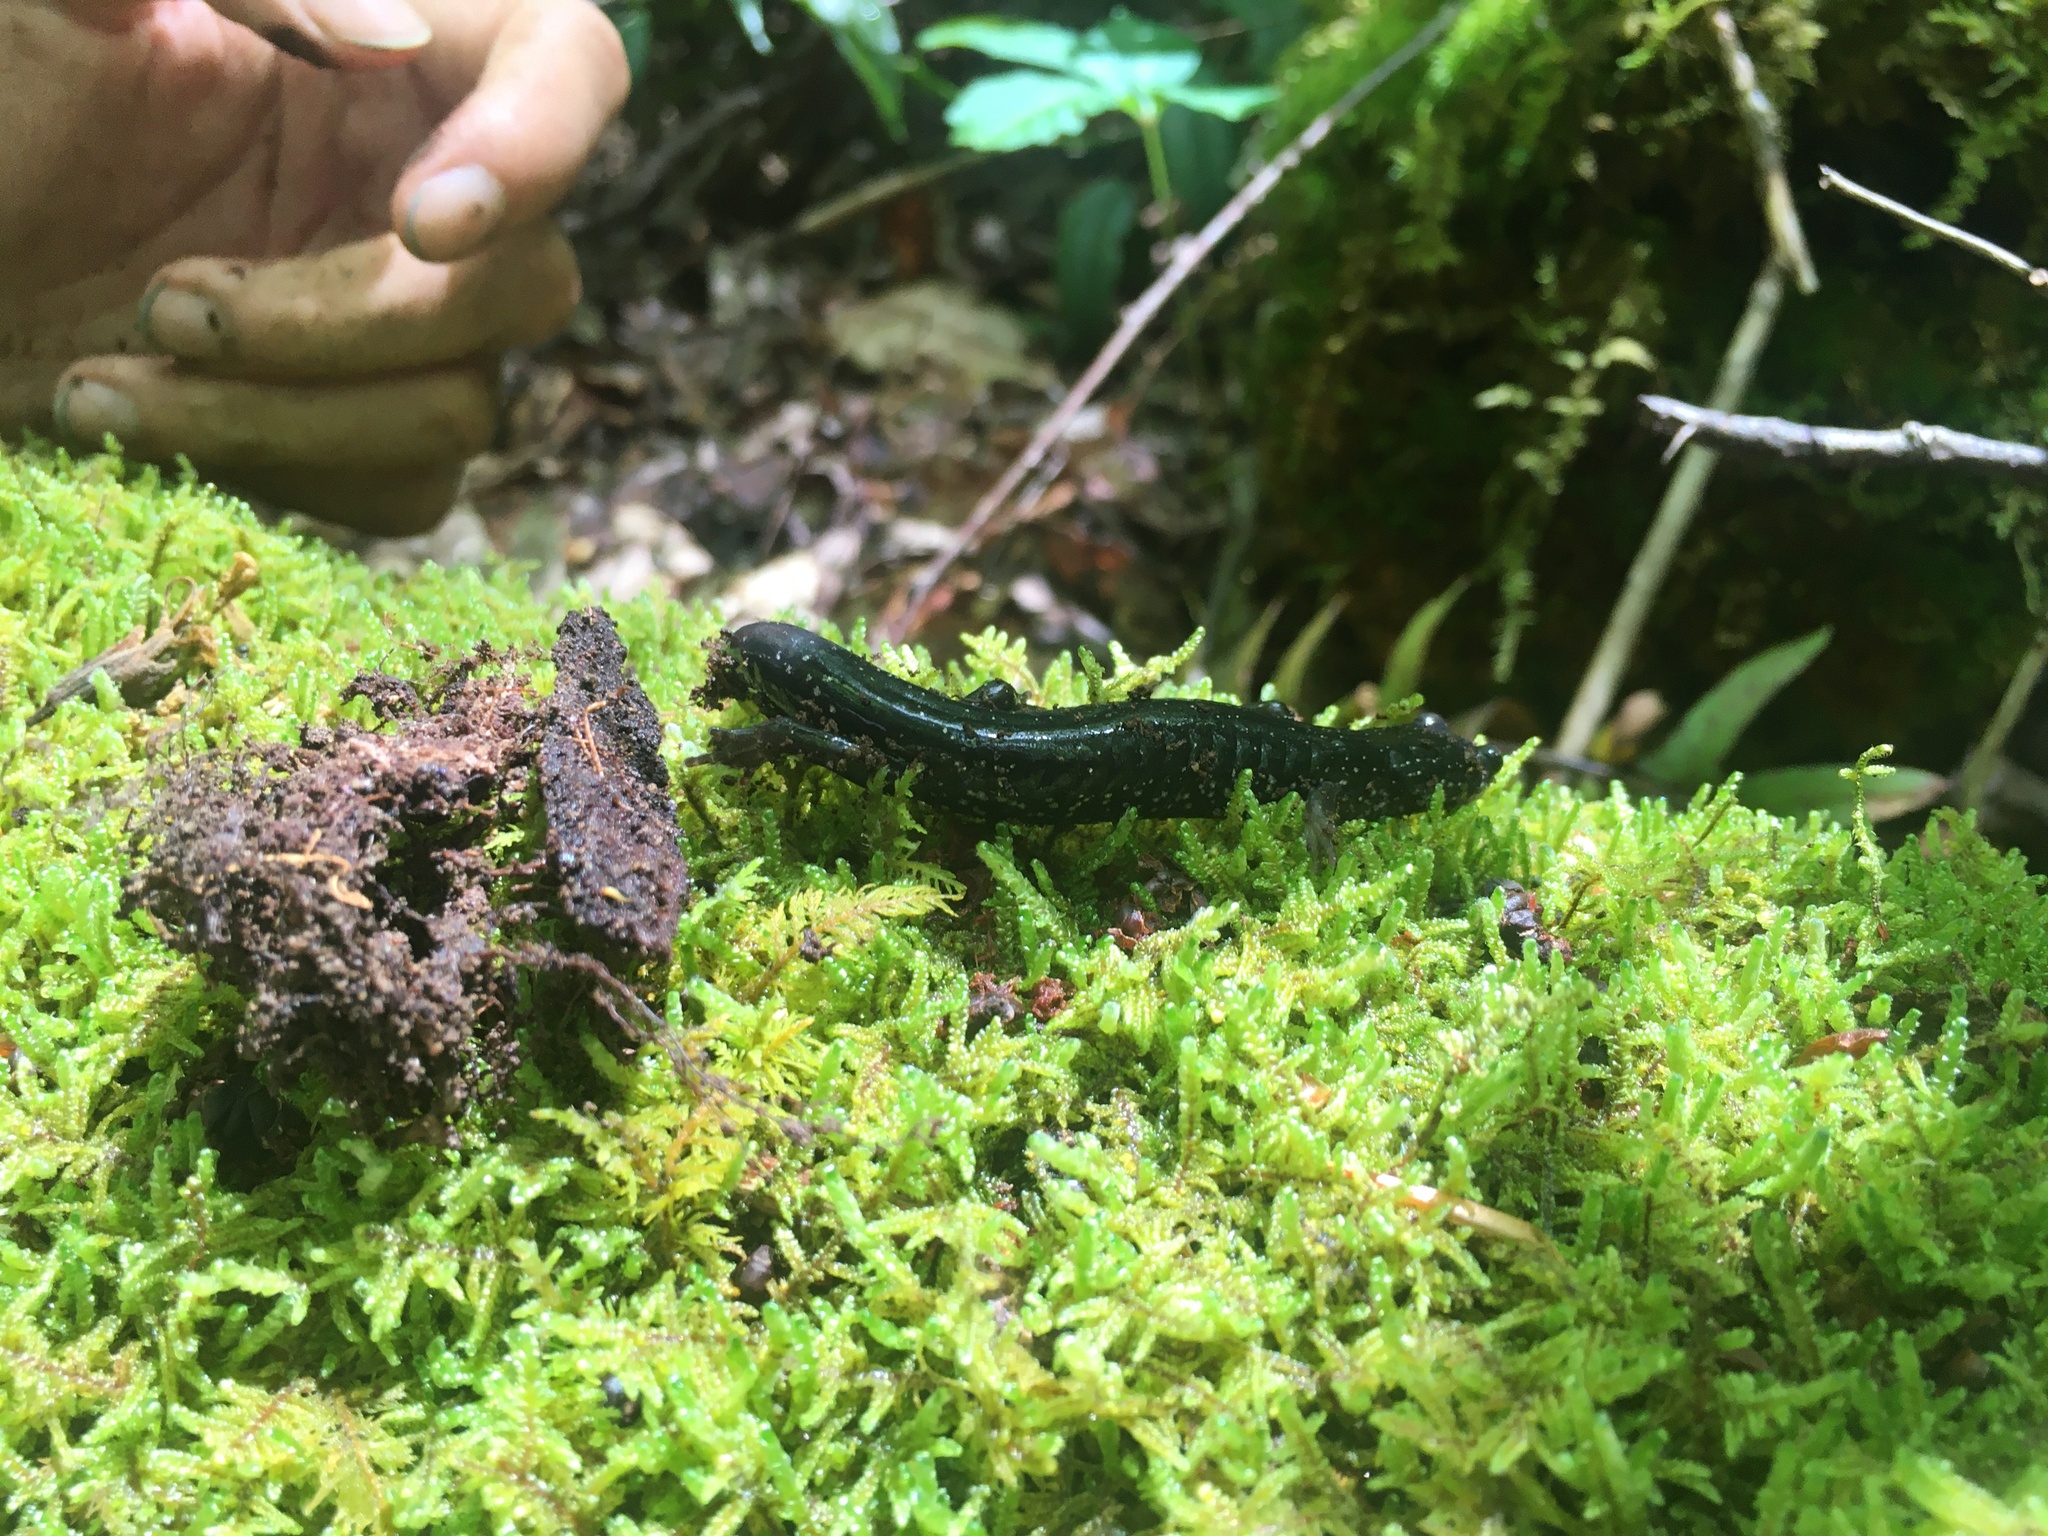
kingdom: Animalia
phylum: Chordata
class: Amphibia
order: Caudata
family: Plethodontidae
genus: Plethodon
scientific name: Plethodon teyahalee
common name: Southern appalachian salamander
